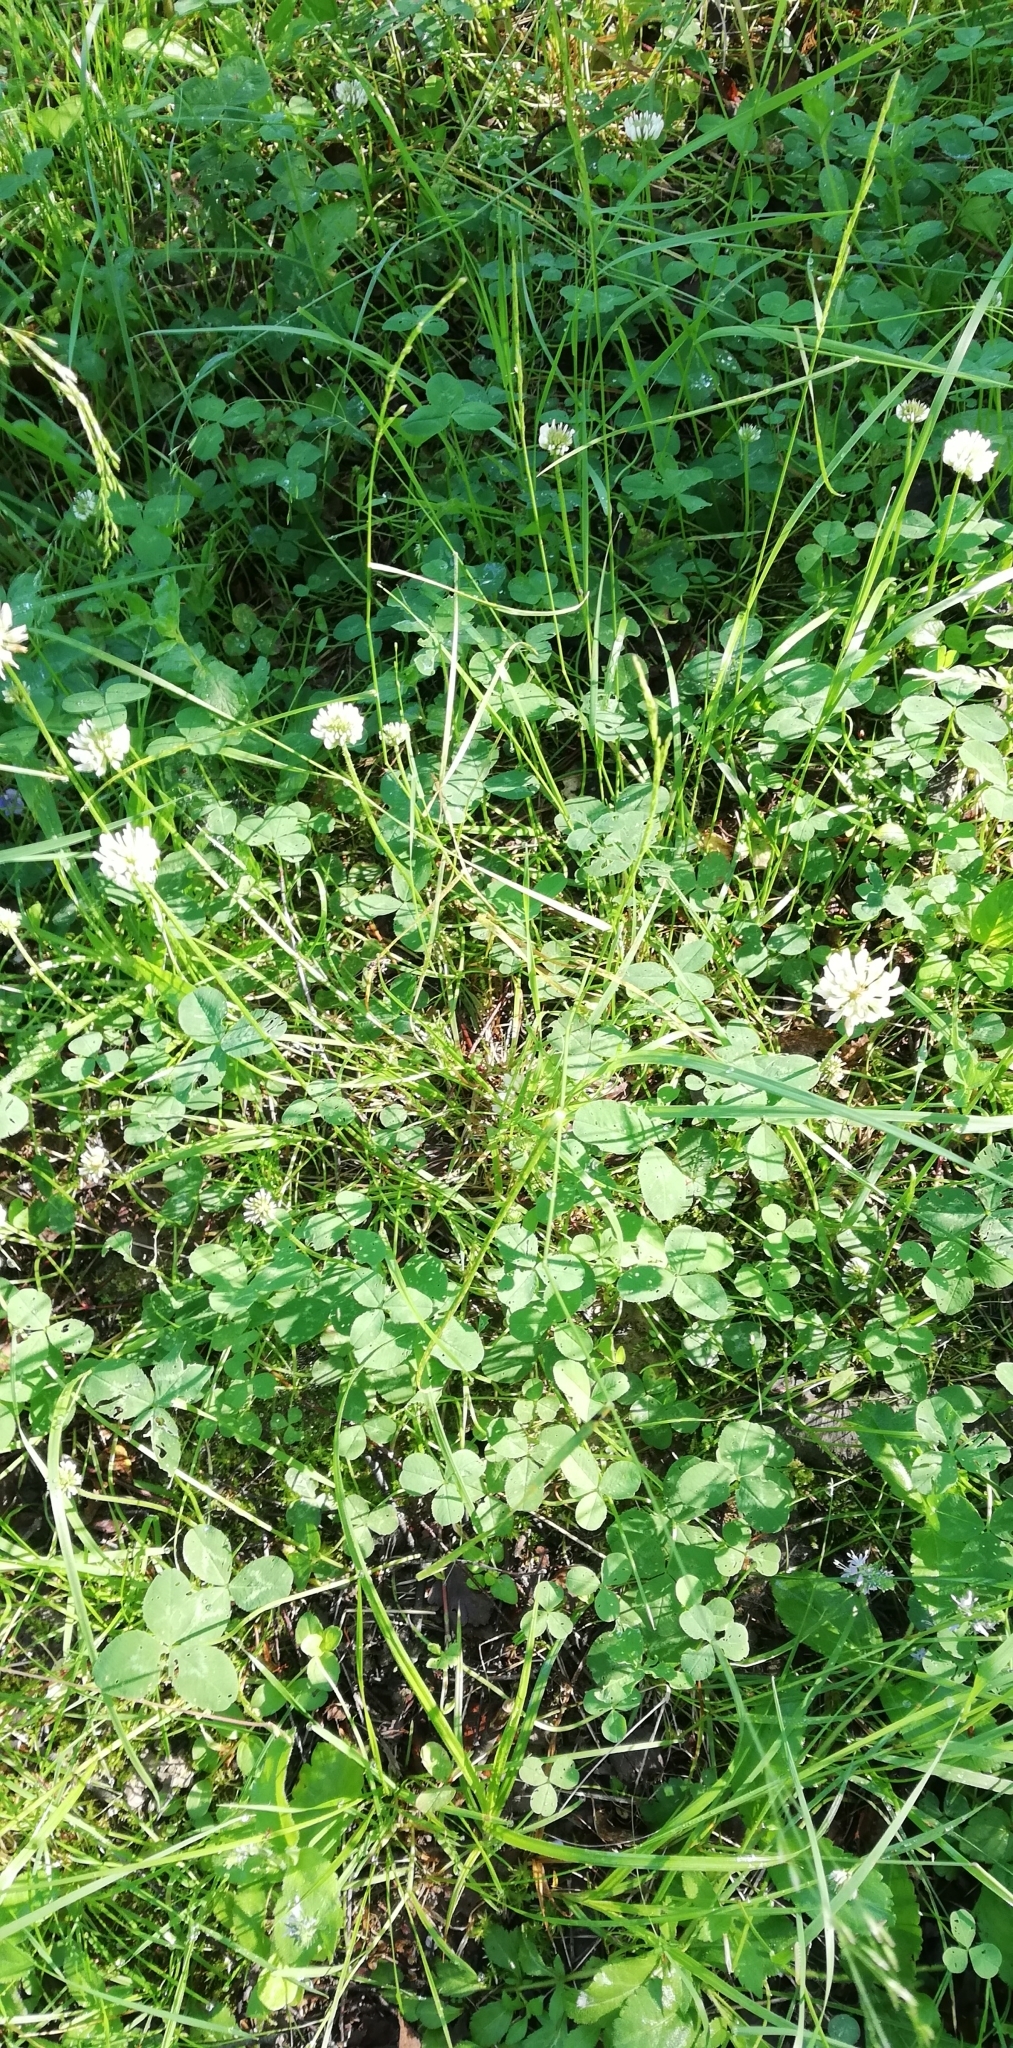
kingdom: Plantae
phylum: Tracheophyta
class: Magnoliopsida
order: Fabales
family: Fabaceae
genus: Trifolium
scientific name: Trifolium repens
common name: White clover
